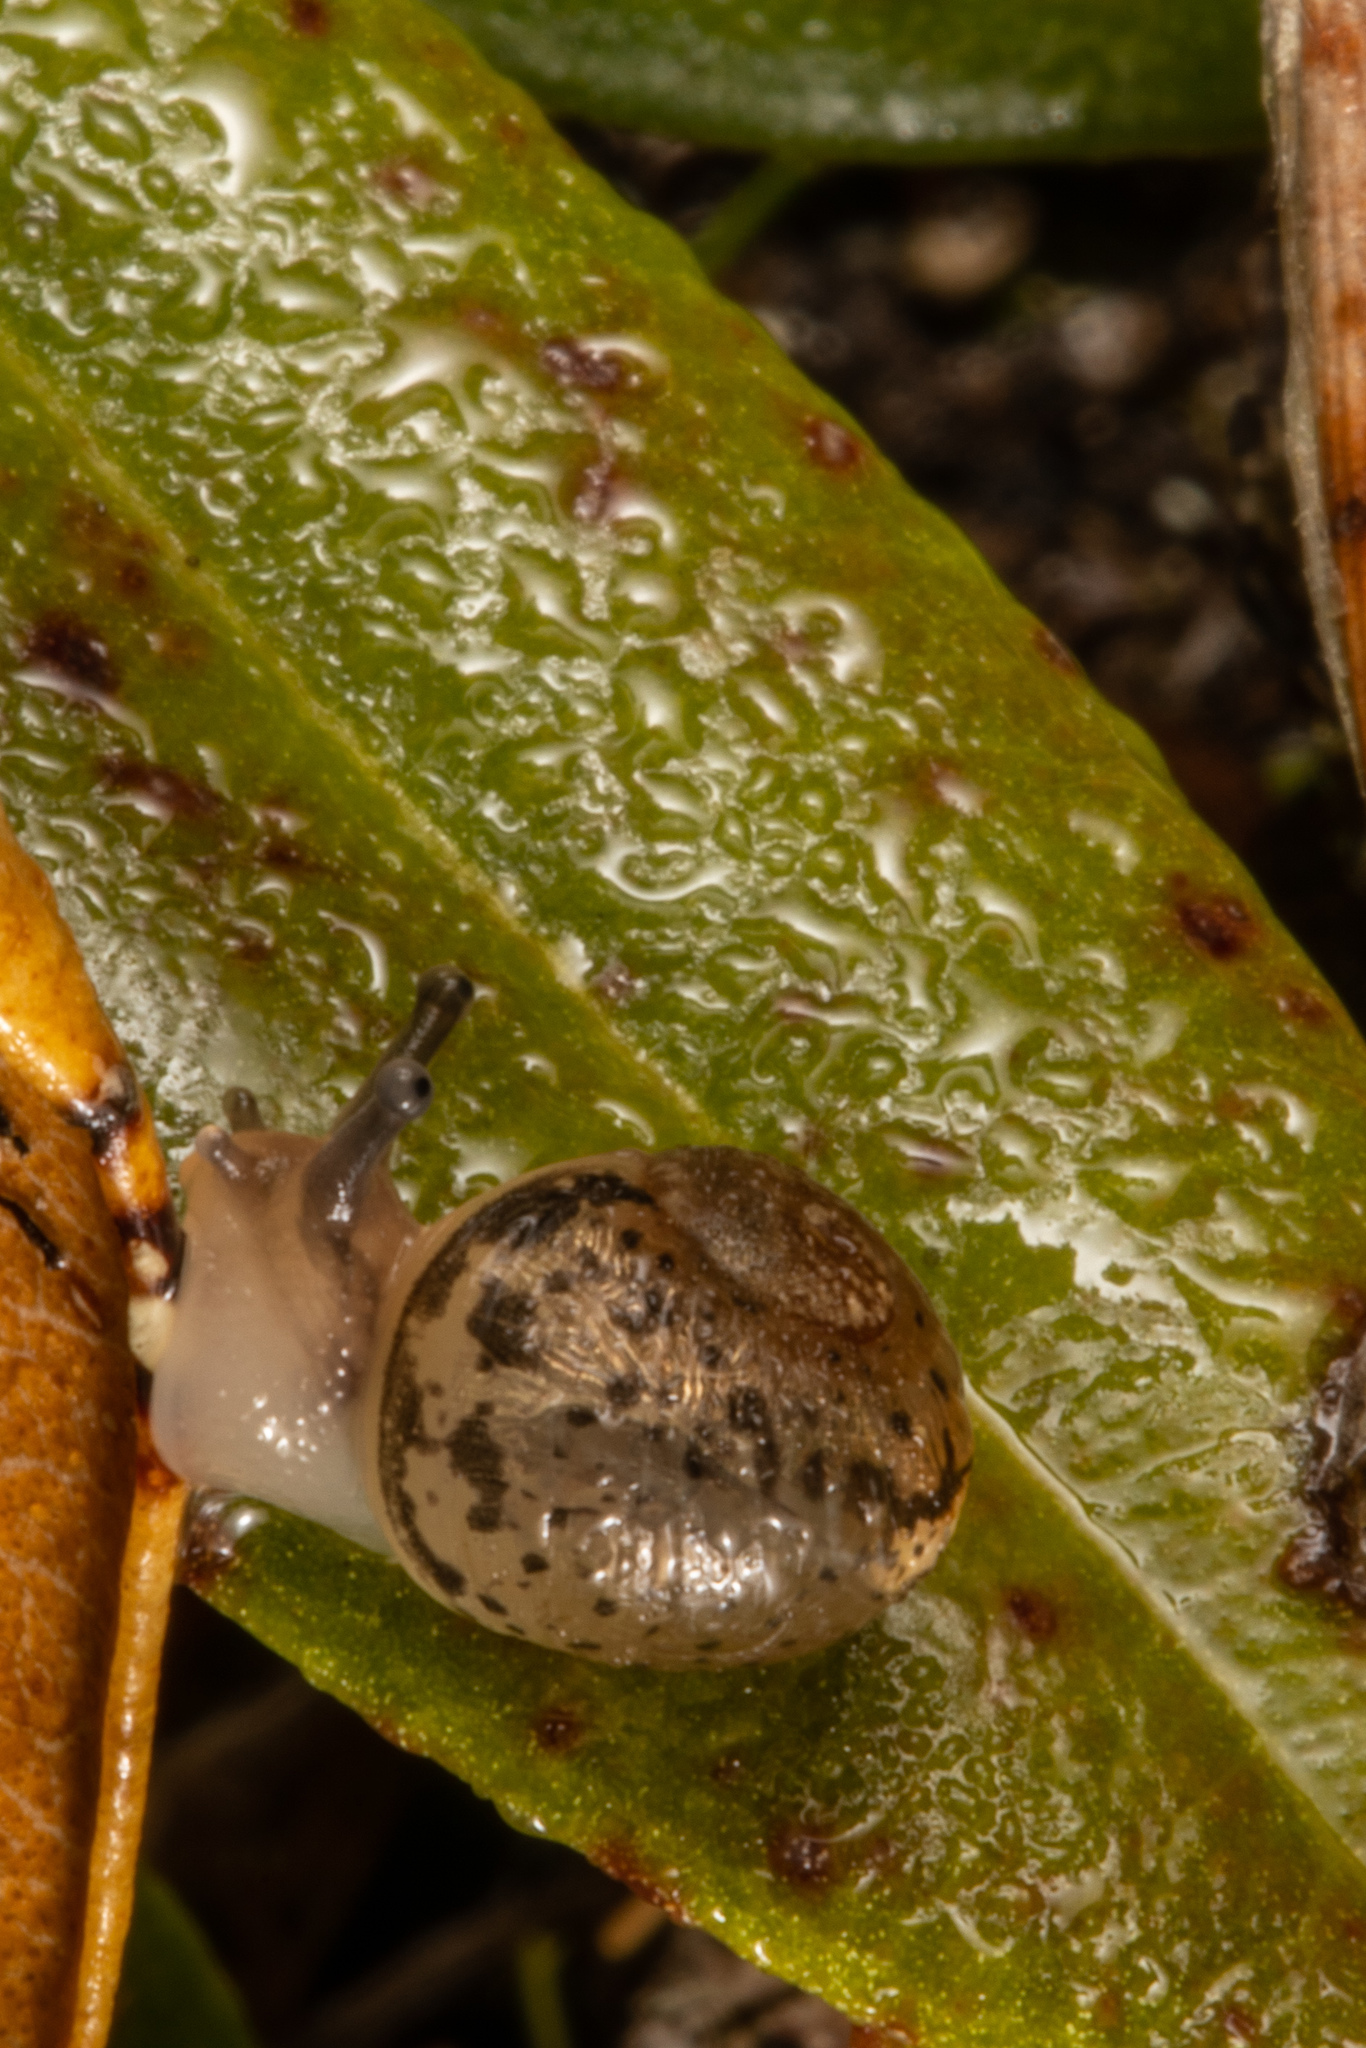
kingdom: Animalia
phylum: Mollusca
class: Gastropoda
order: Stylommatophora
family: Helicidae
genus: Cornu
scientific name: Cornu aspersum
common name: Brown garden snail
